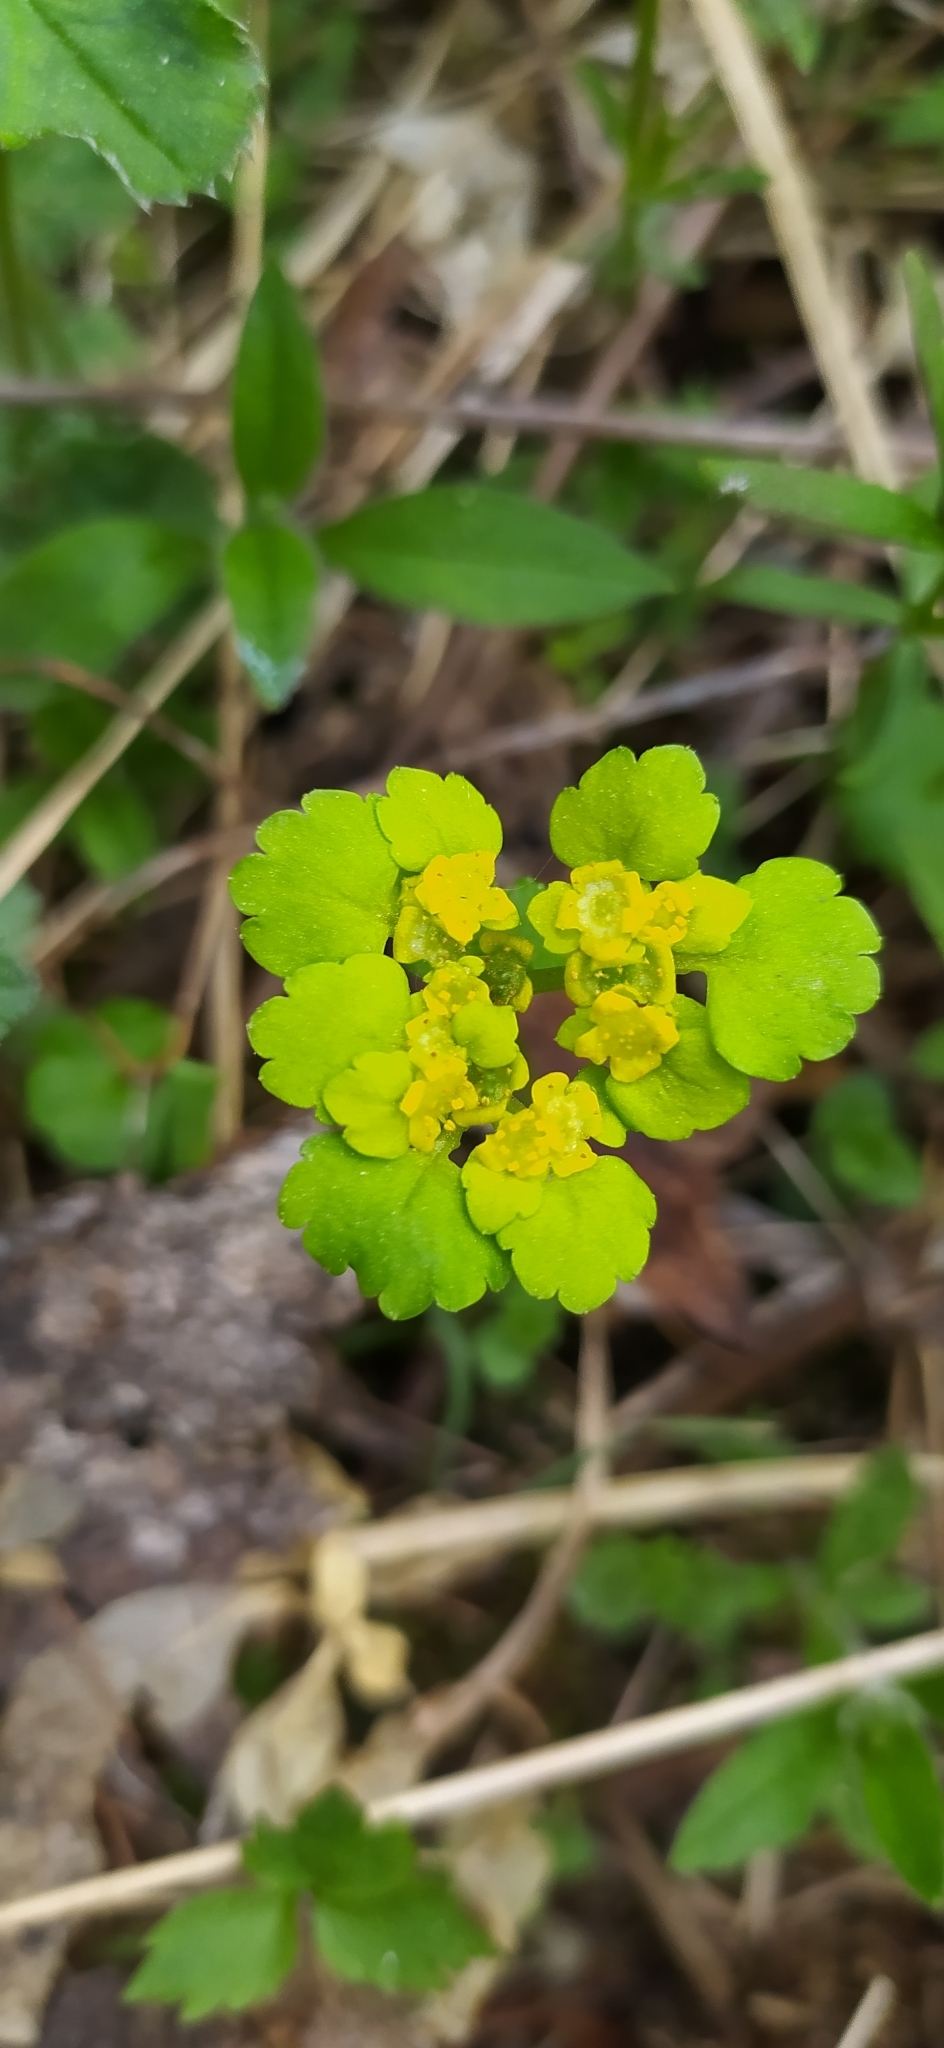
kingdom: Plantae
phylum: Tracheophyta
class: Magnoliopsida
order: Saxifragales
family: Saxifragaceae
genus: Chrysosplenium
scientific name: Chrysosplenium alternifolium
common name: Alternate-leaved golden-saxifrage
